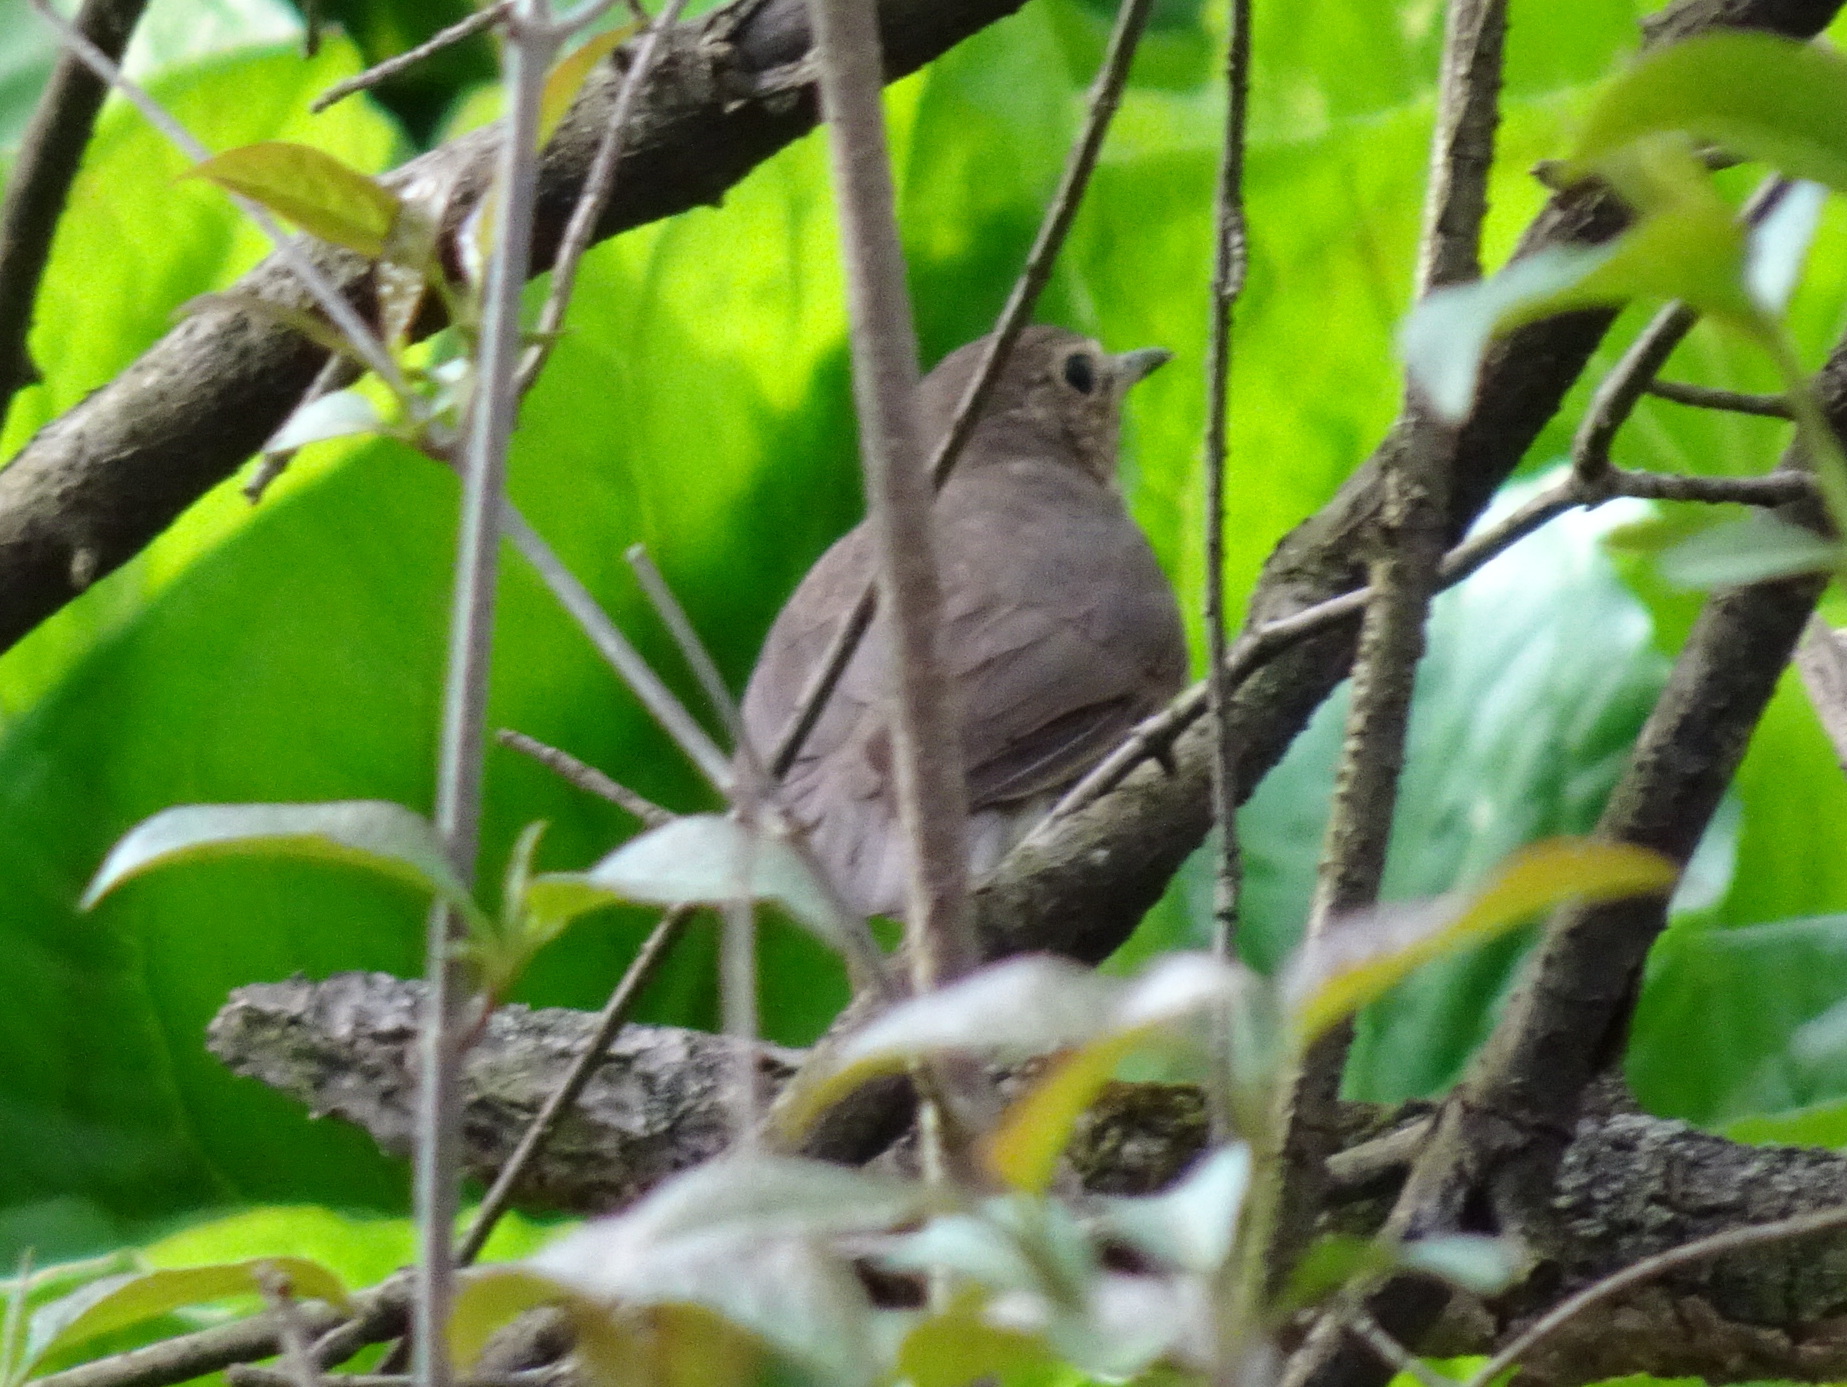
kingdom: Animalia
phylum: Chordata
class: Aves
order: Passeriformes
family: Turdidae
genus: Catharus
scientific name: Catharus ustulatus
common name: Swainson's thrush
